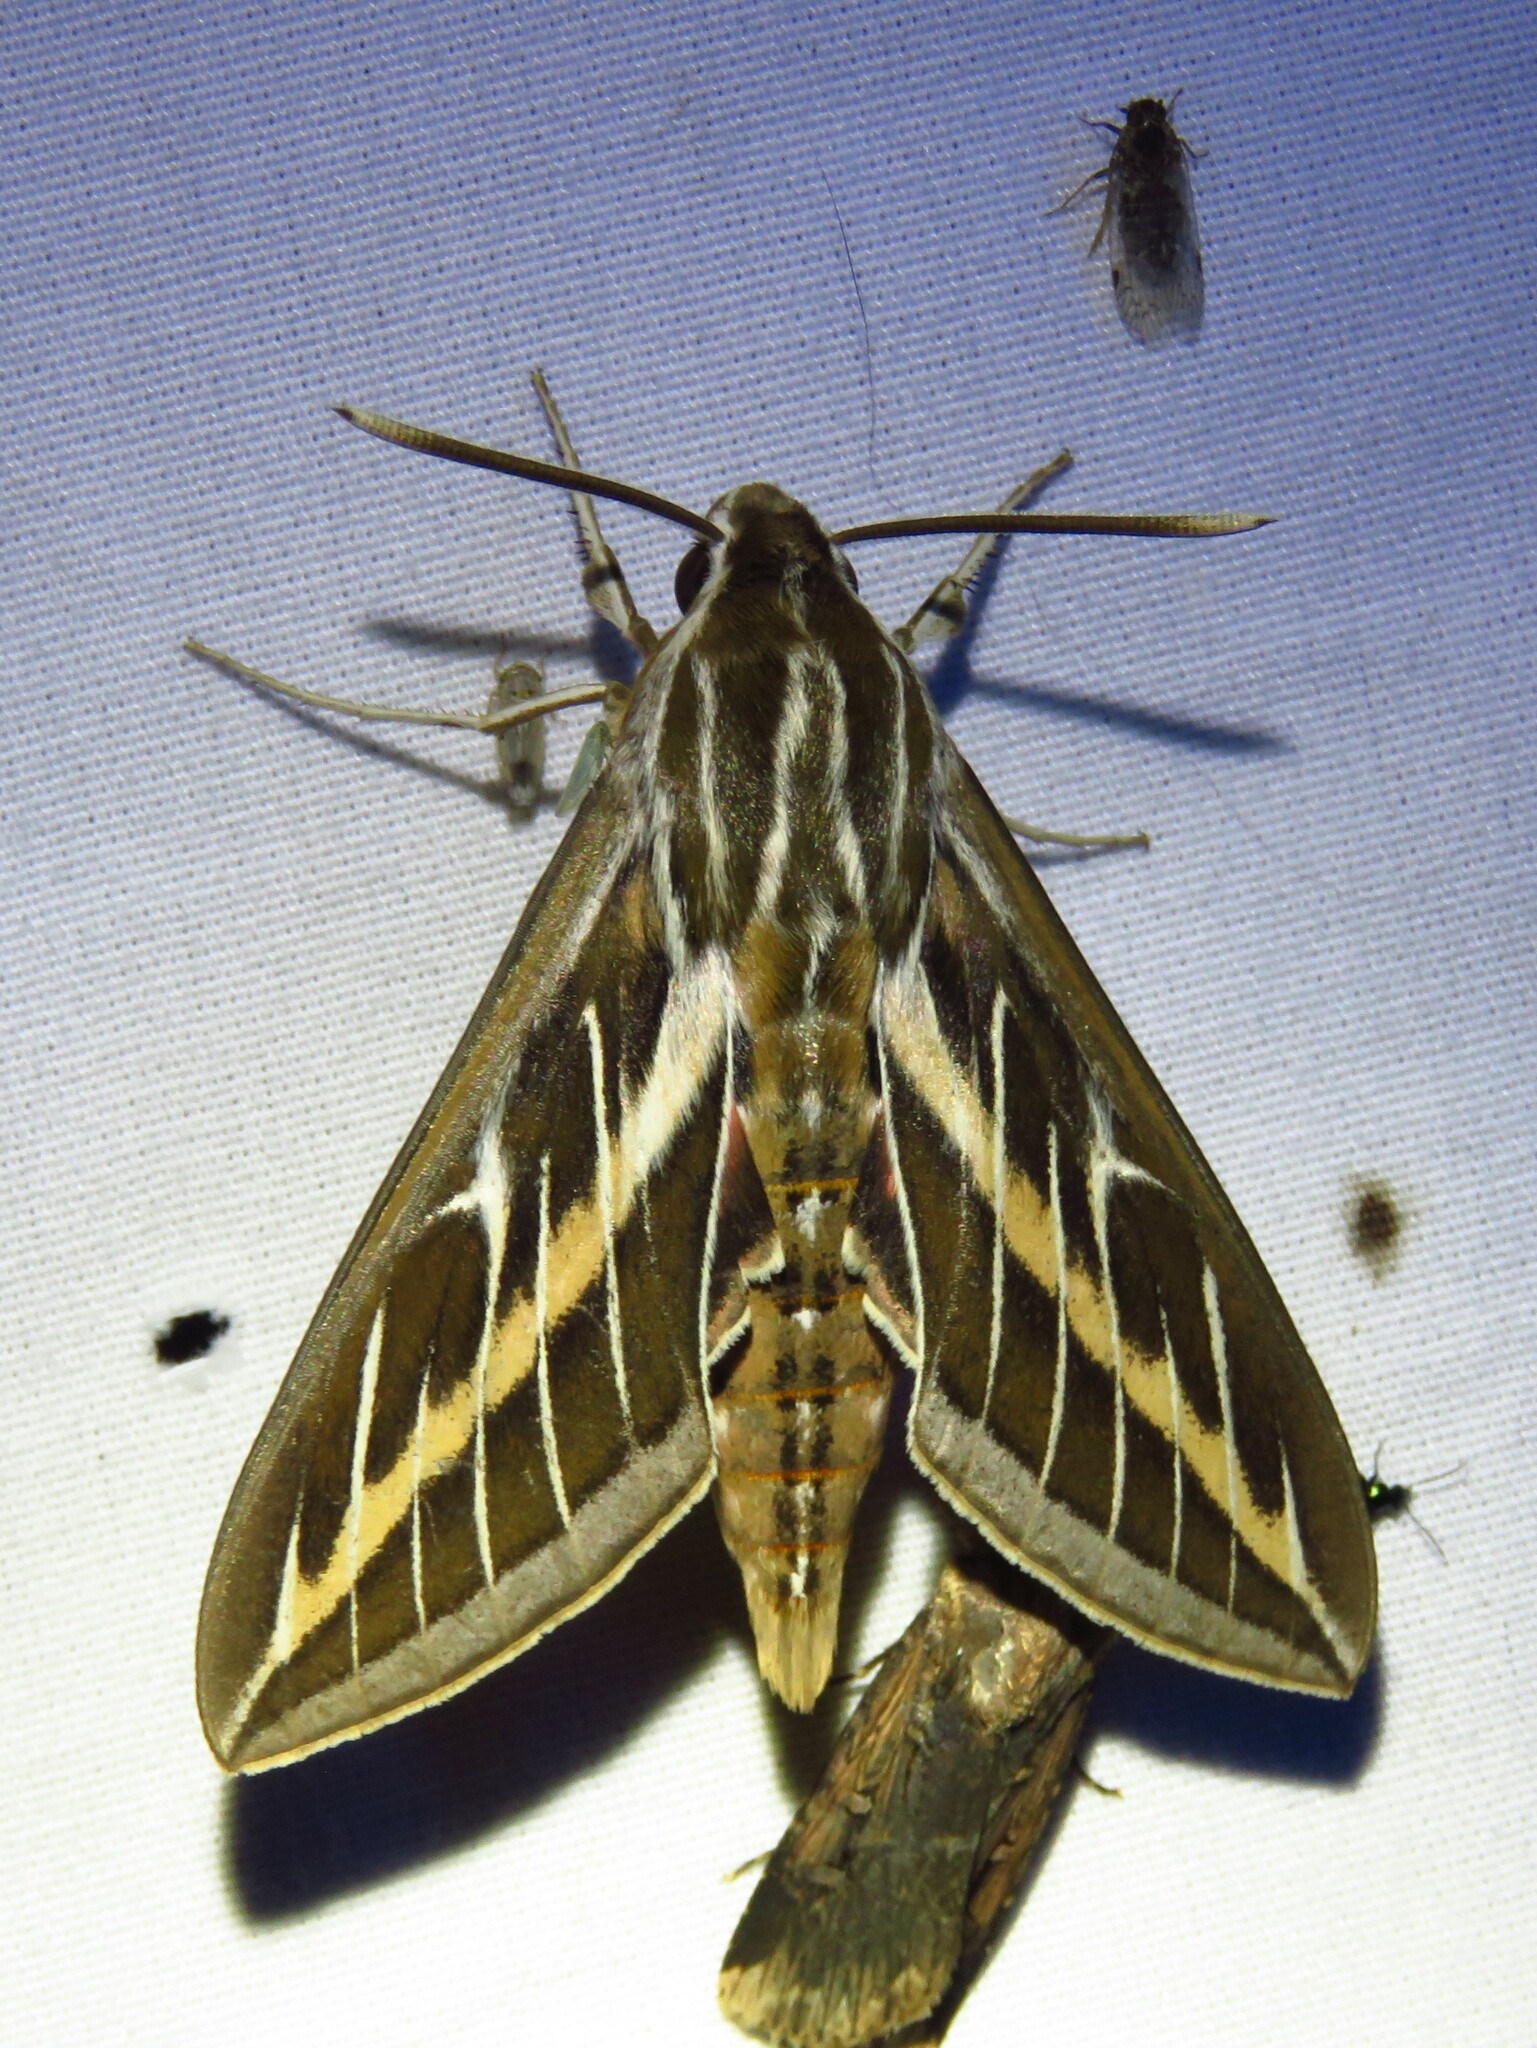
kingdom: Animalia
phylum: Arthropoda
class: Insecta
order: Lepidoptera
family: Sphingidae
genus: Hyles
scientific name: Hyles lineata
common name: White-lined sphinx
